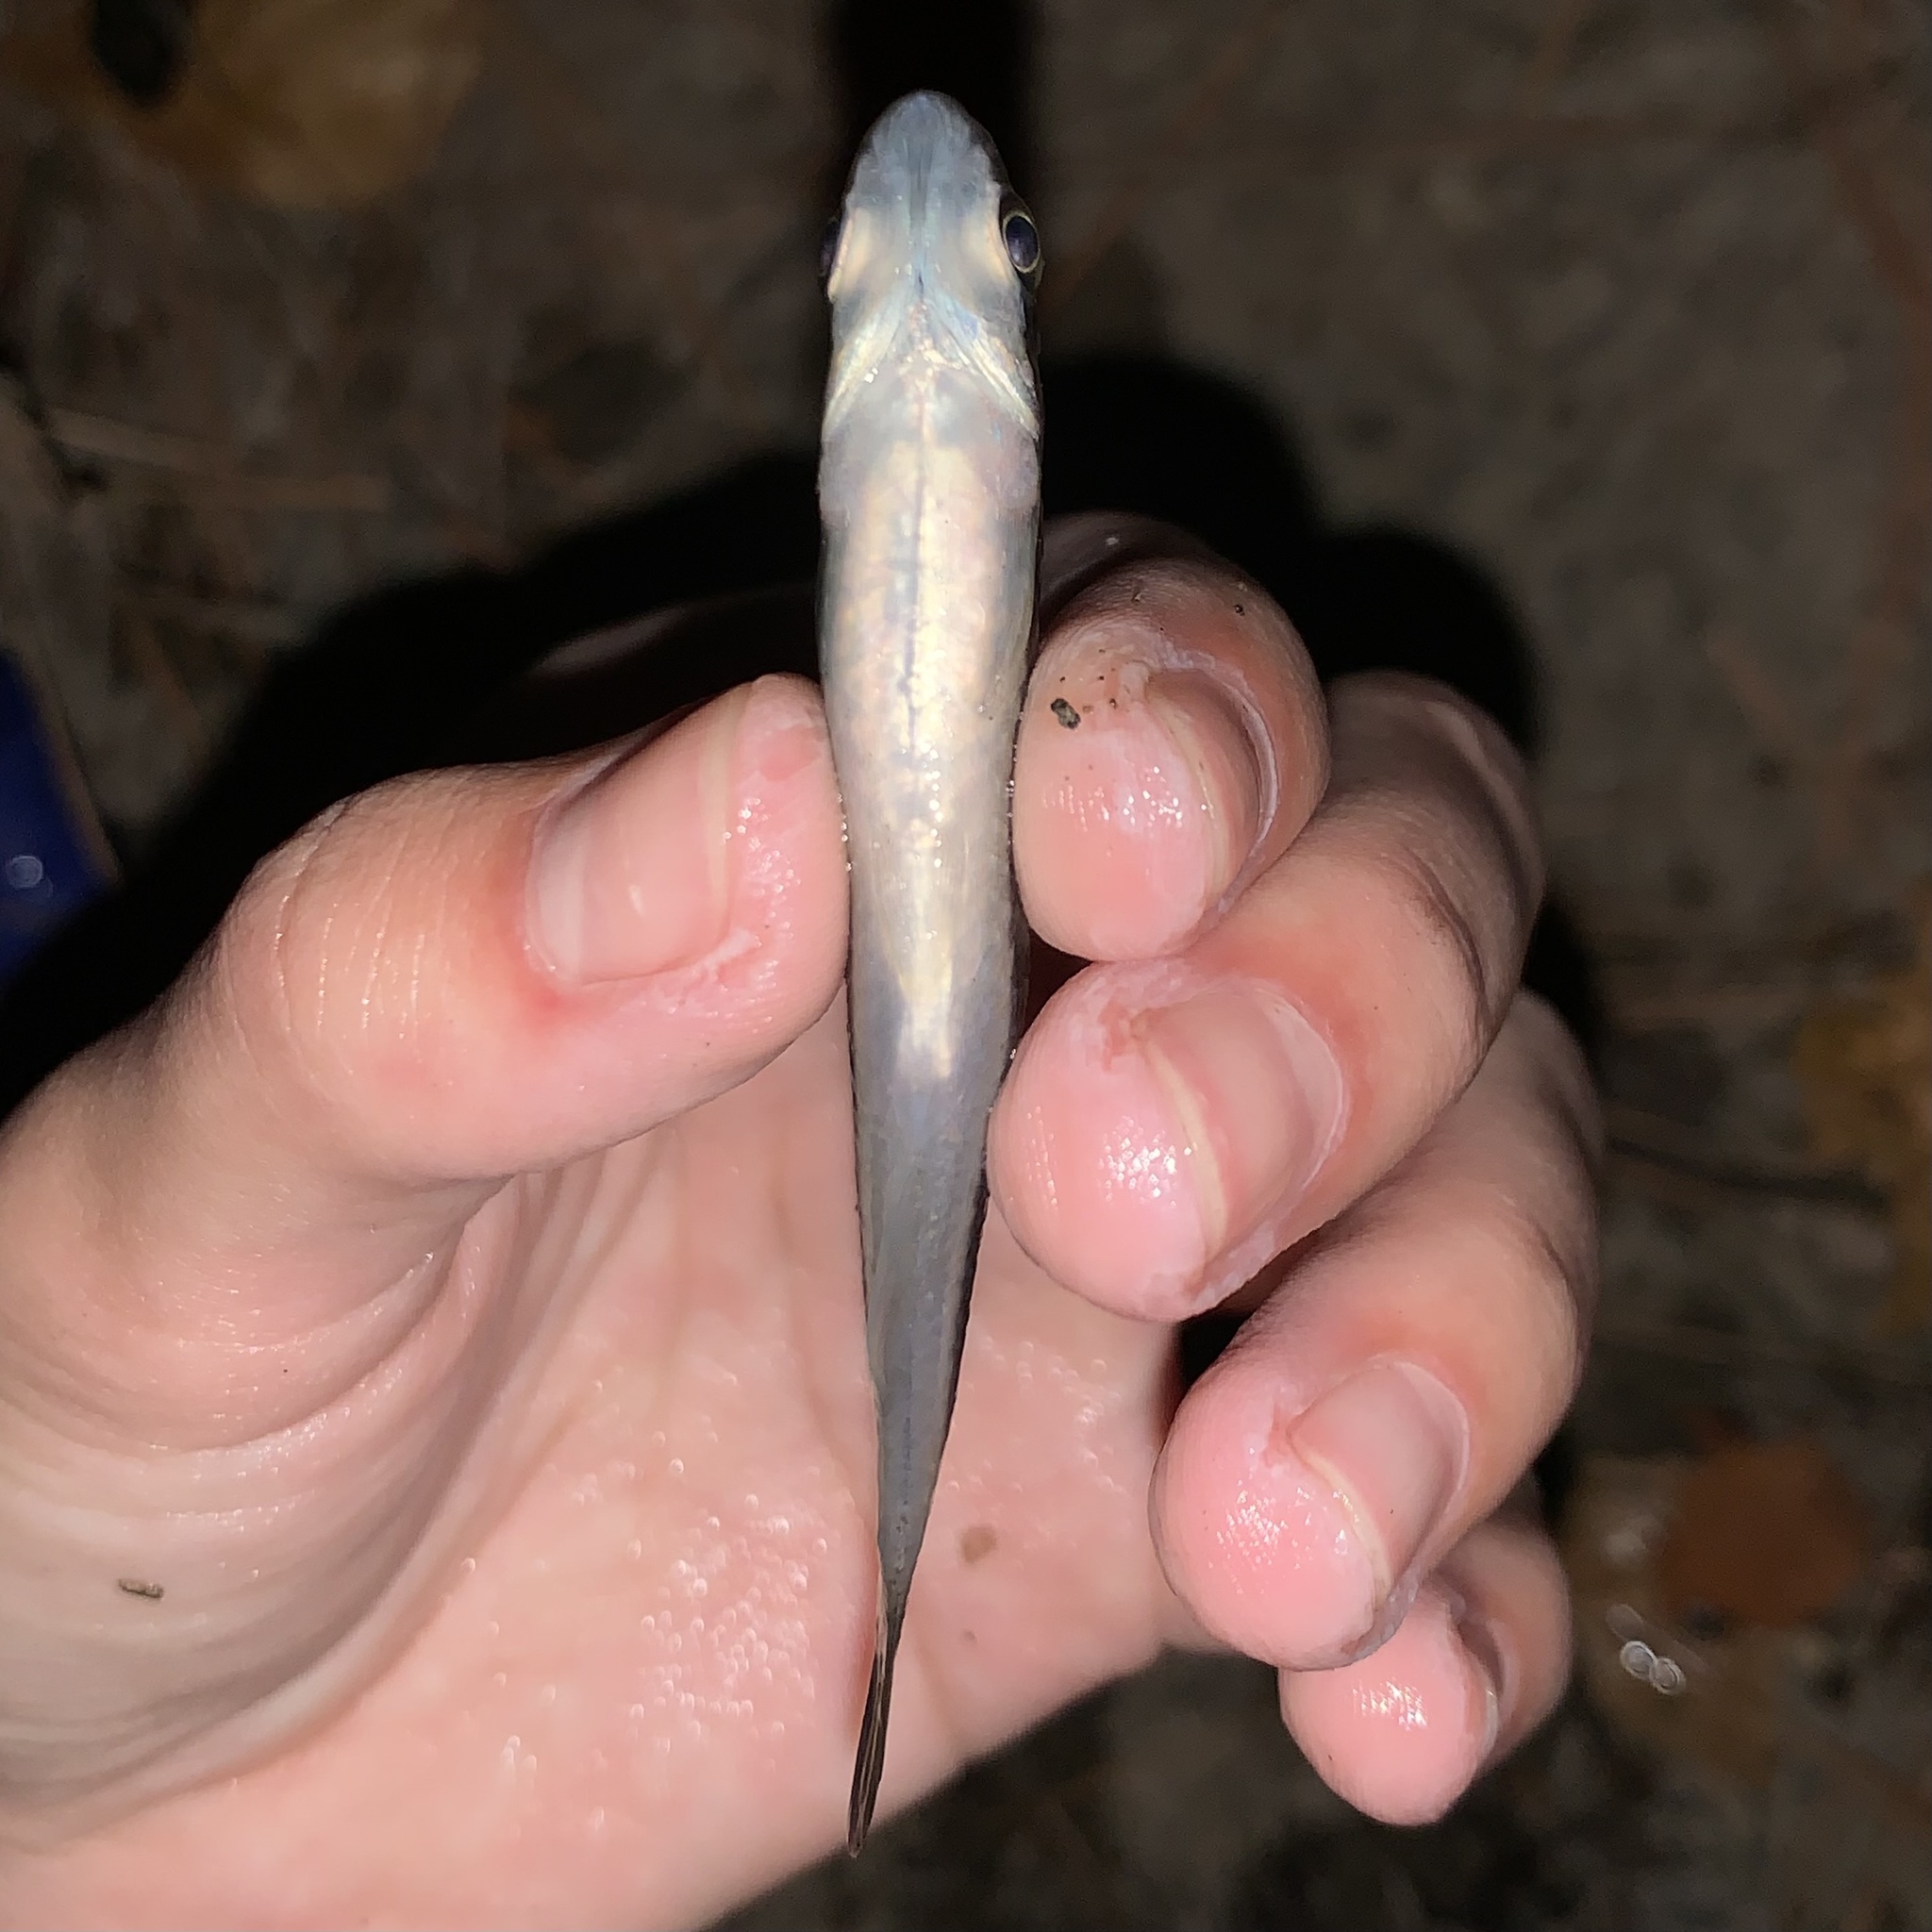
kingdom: Animalia
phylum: Chordata
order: Cyprinodontiformes
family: Fundulidae
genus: Fundulus
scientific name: Fundulus notatus
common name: Blackstripe topminnow
